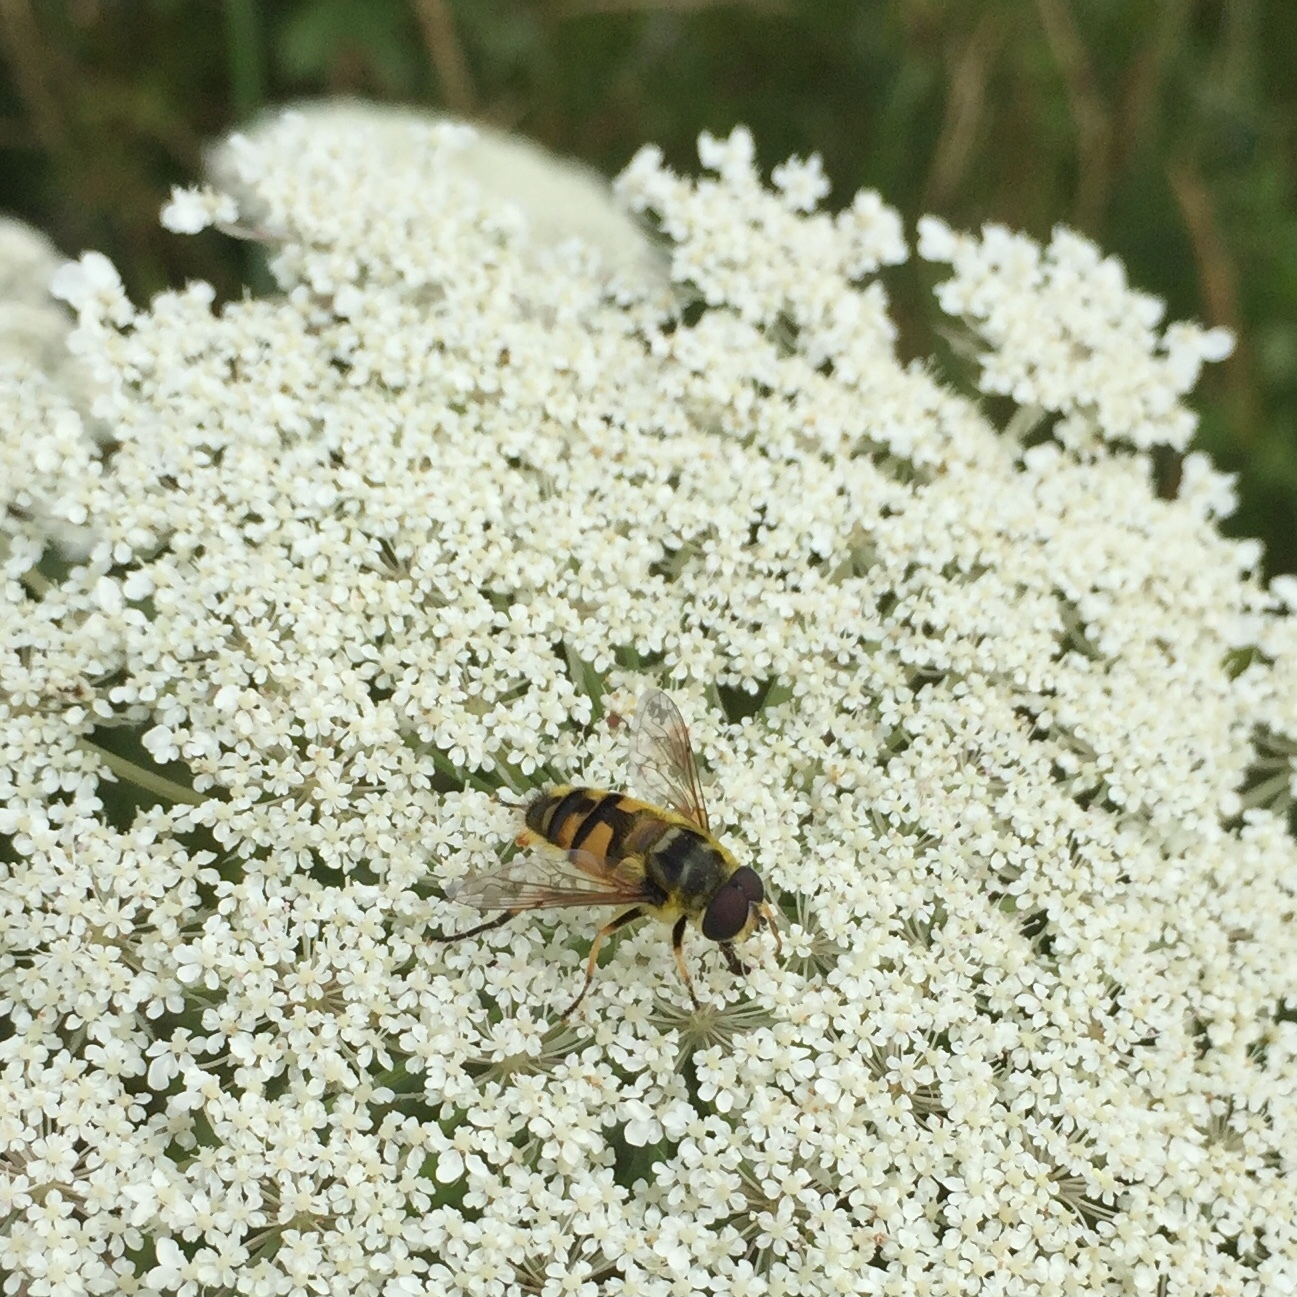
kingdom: Animalia
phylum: Arthropoda
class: Insecta
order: Diptera
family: Syrphidae
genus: Myathropa
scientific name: Myathropa florea
